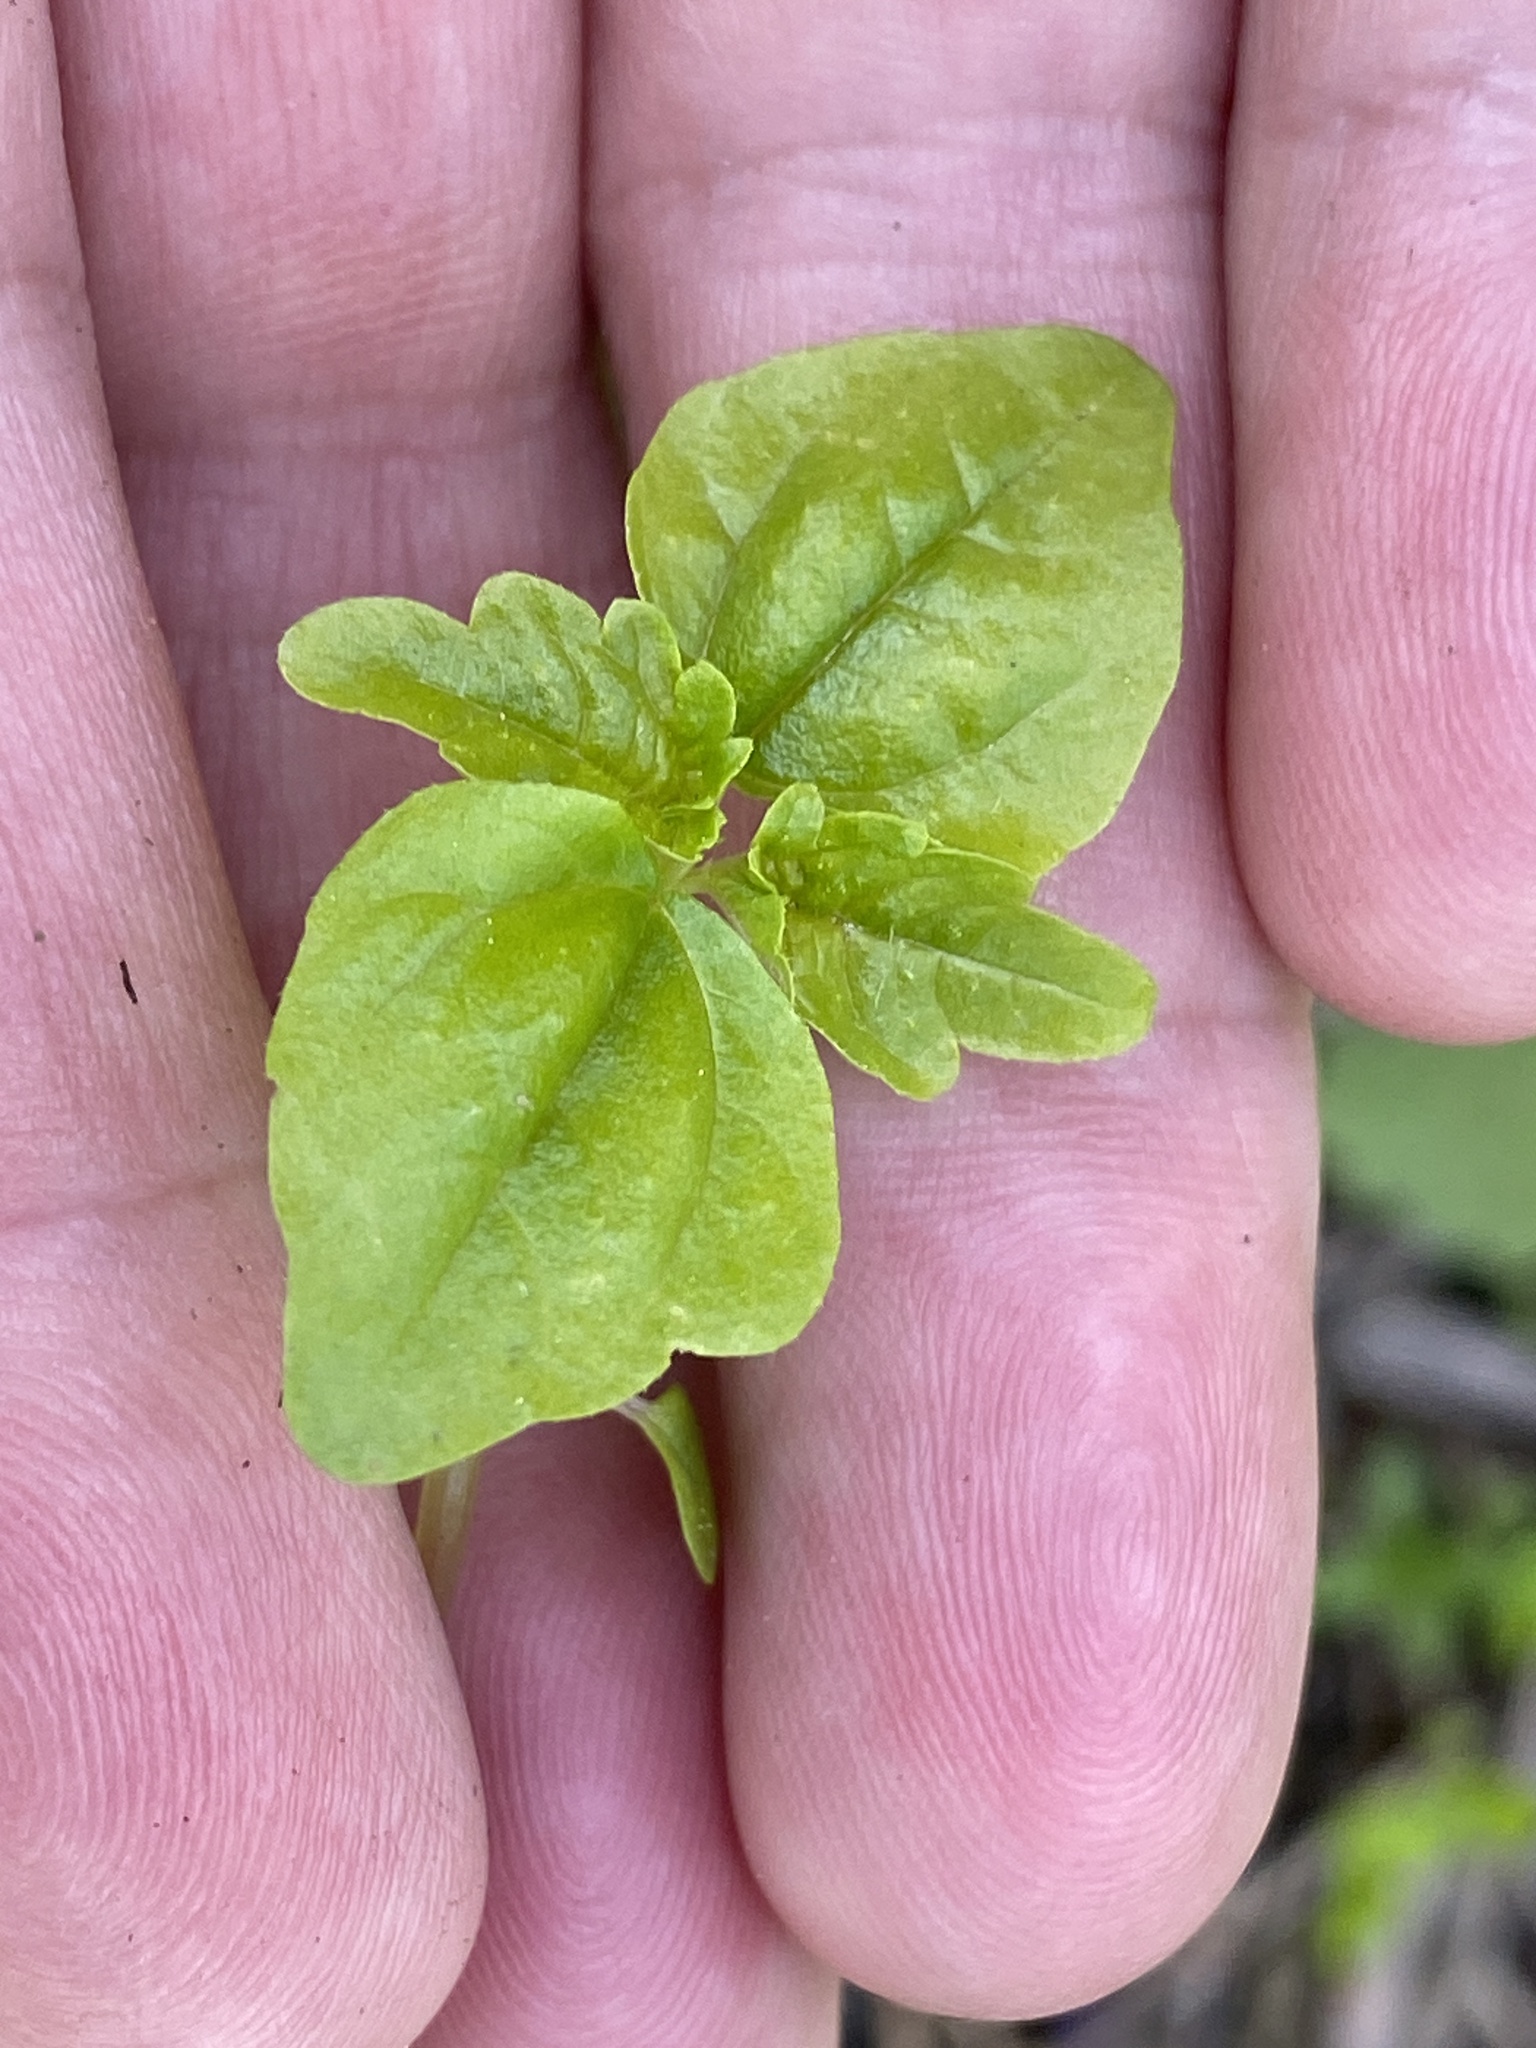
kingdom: Plantae
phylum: Tracheophyta
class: Magnoliopsida
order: Rosales
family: Urticaceae
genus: Pilea
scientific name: Pilea pumila
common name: Clearweed
